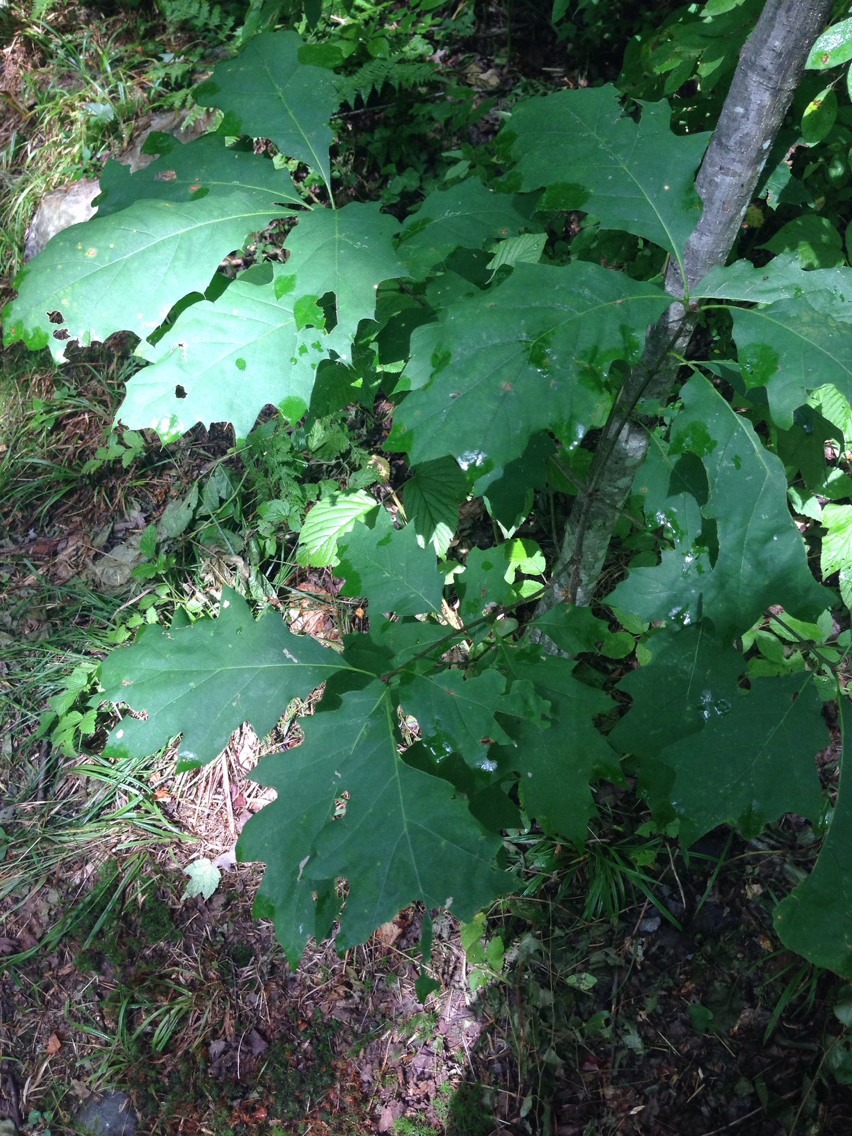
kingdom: Plantae
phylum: Tracheophyta
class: Magnoliopsida
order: Fagales
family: Fagaceae
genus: Quercus
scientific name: Quercus rubra
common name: Red oak
